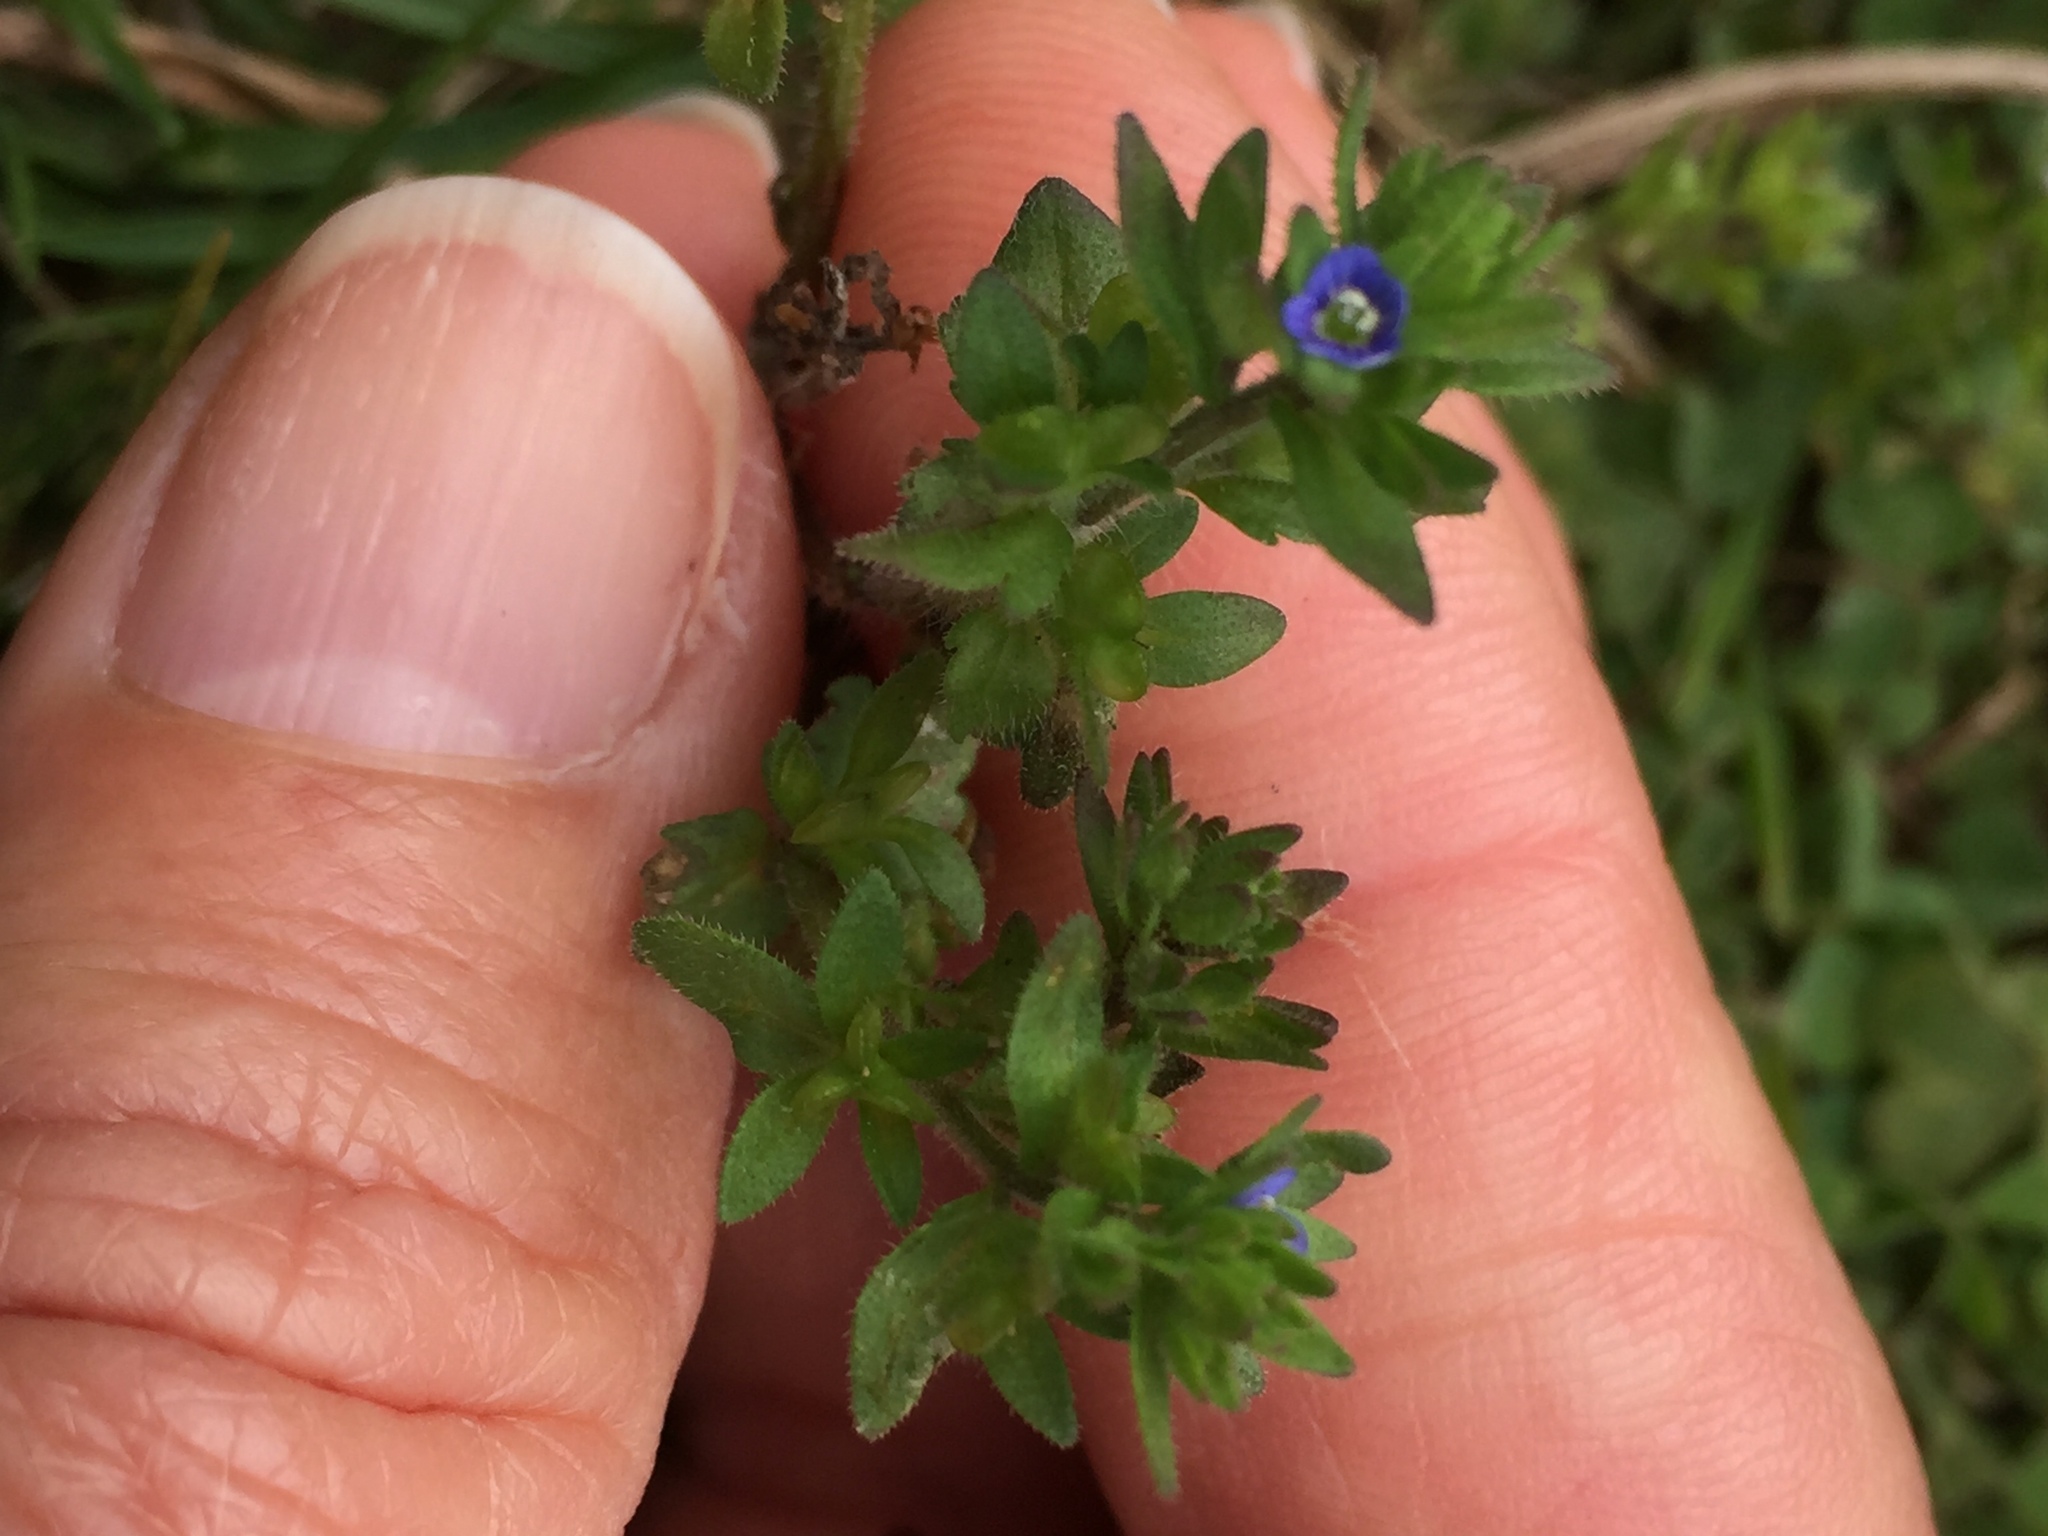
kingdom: Plantae
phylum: Tracheophyta
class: Magnoliopsida
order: Lamiales
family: Plantaginaceae
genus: Veronica
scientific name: Veronica arvensis
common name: Corn speedwell
